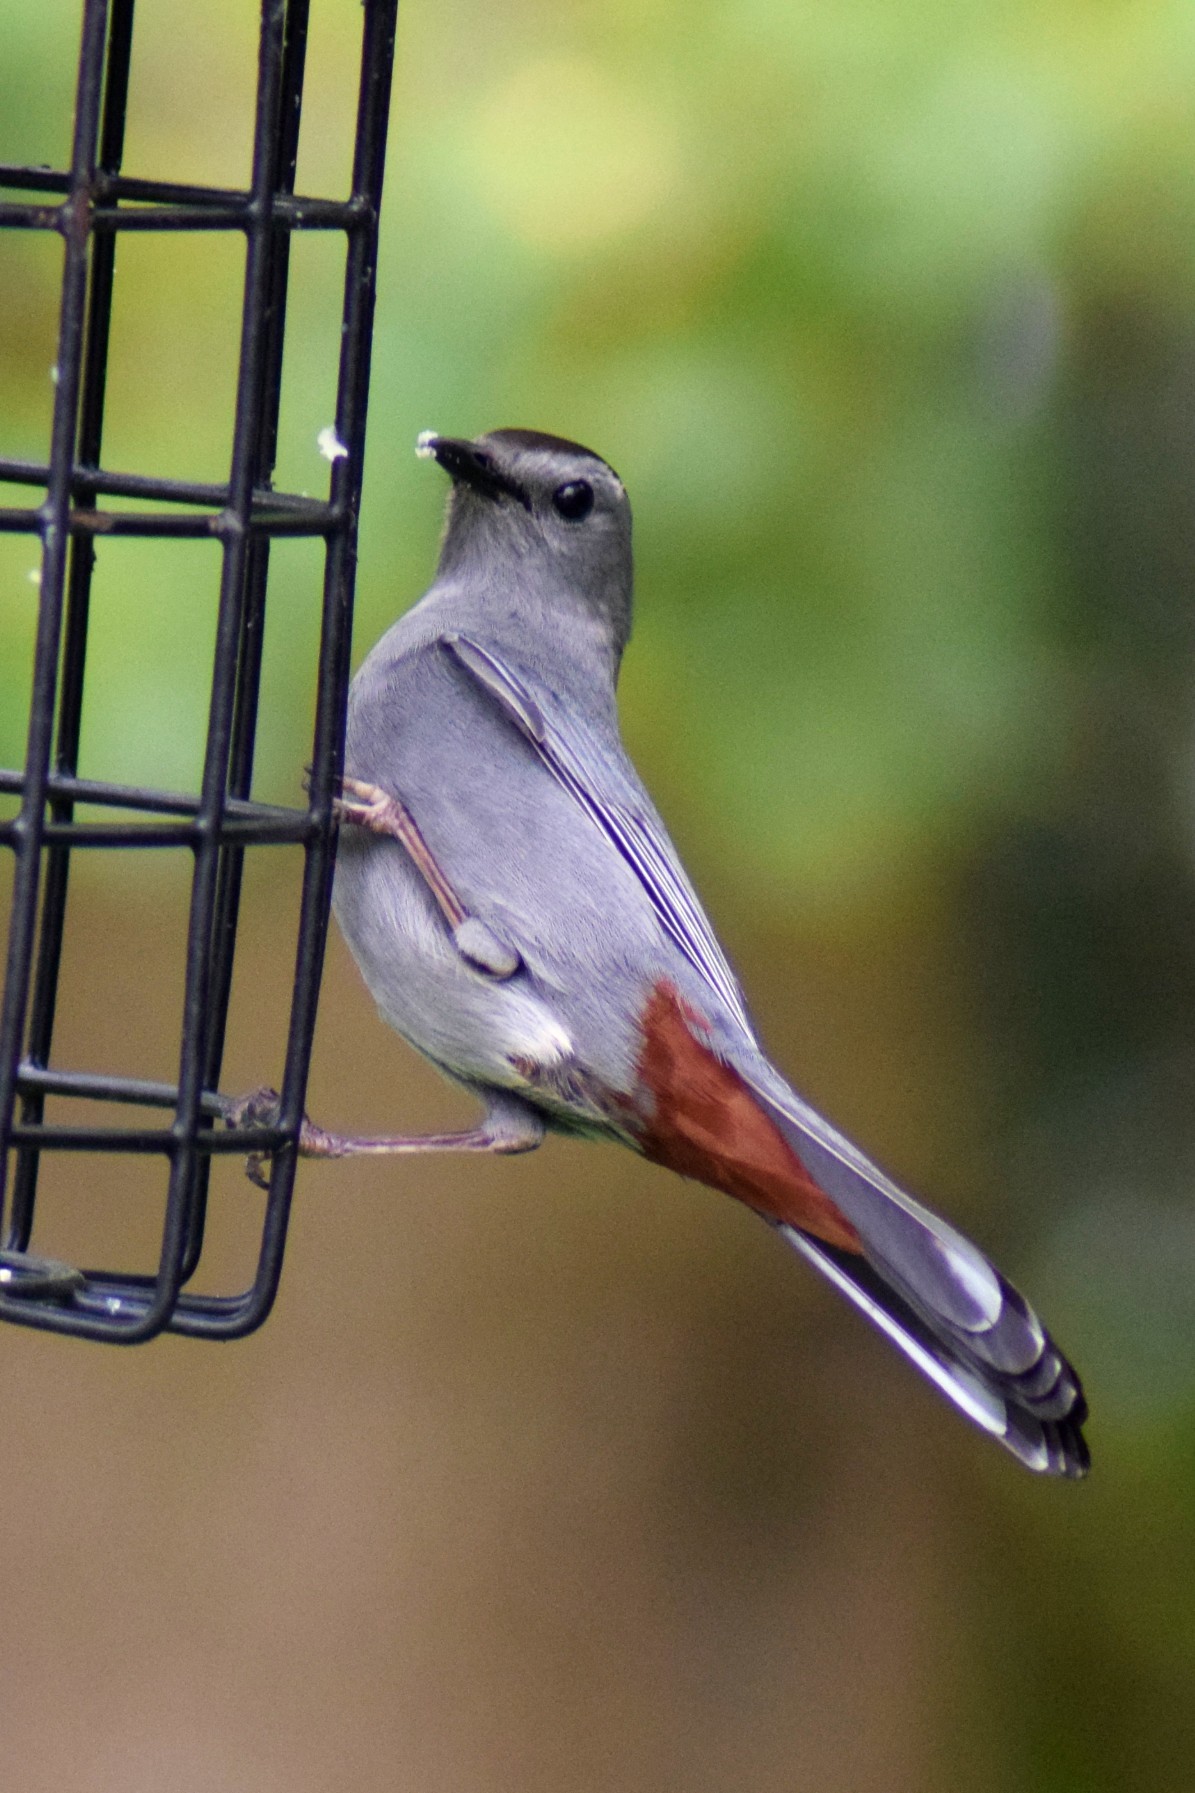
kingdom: Animalia
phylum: Chordata
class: Aves
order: Passeriformes
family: Mimidae
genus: Dumetella
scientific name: Dumetella carolinensis
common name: Gray catbird
